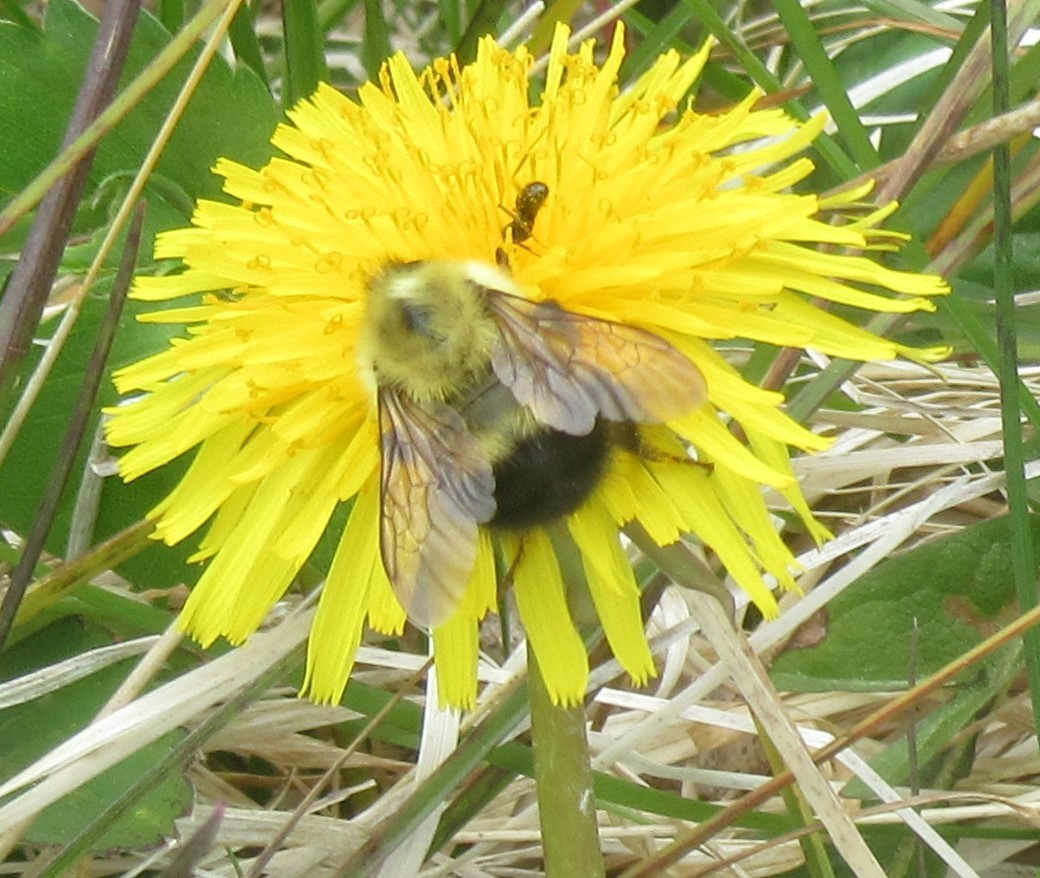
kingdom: Animalia
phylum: Arthropoda
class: Insecta
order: Hymenoptera
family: Apidae
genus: Pyrobombus
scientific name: Pyrobombus
